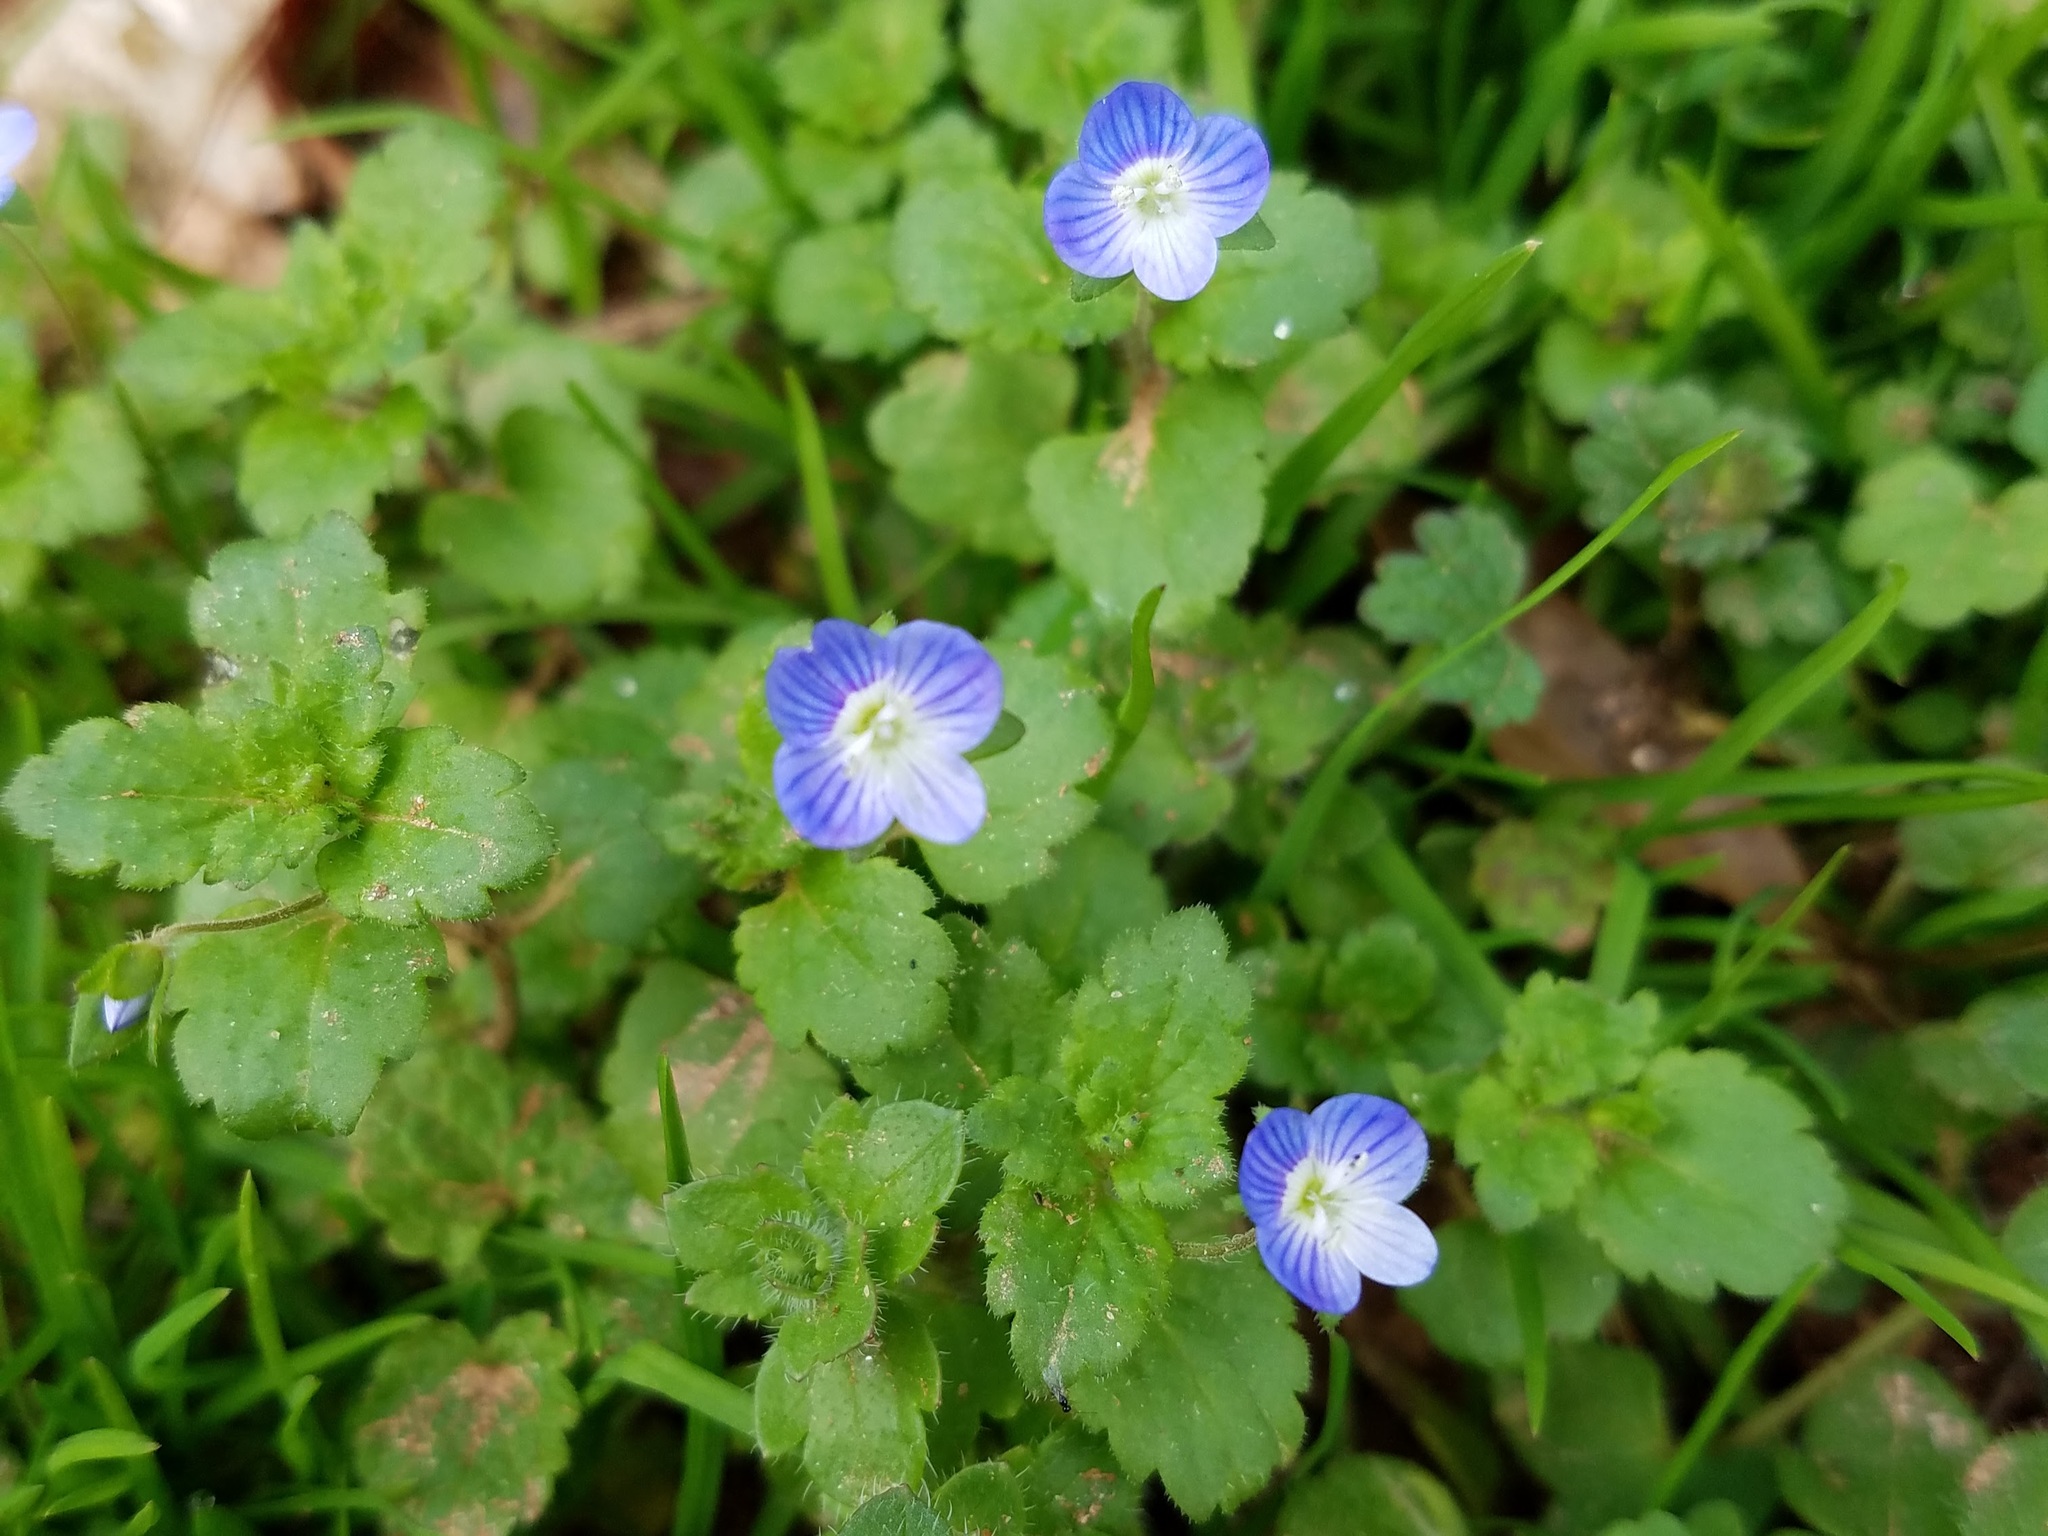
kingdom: Plantae
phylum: Tracheophyta
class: Magnoliopsida
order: Lamiales
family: Plantaginaceae
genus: Veronica
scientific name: Veronica persica
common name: Common field-speedwell
